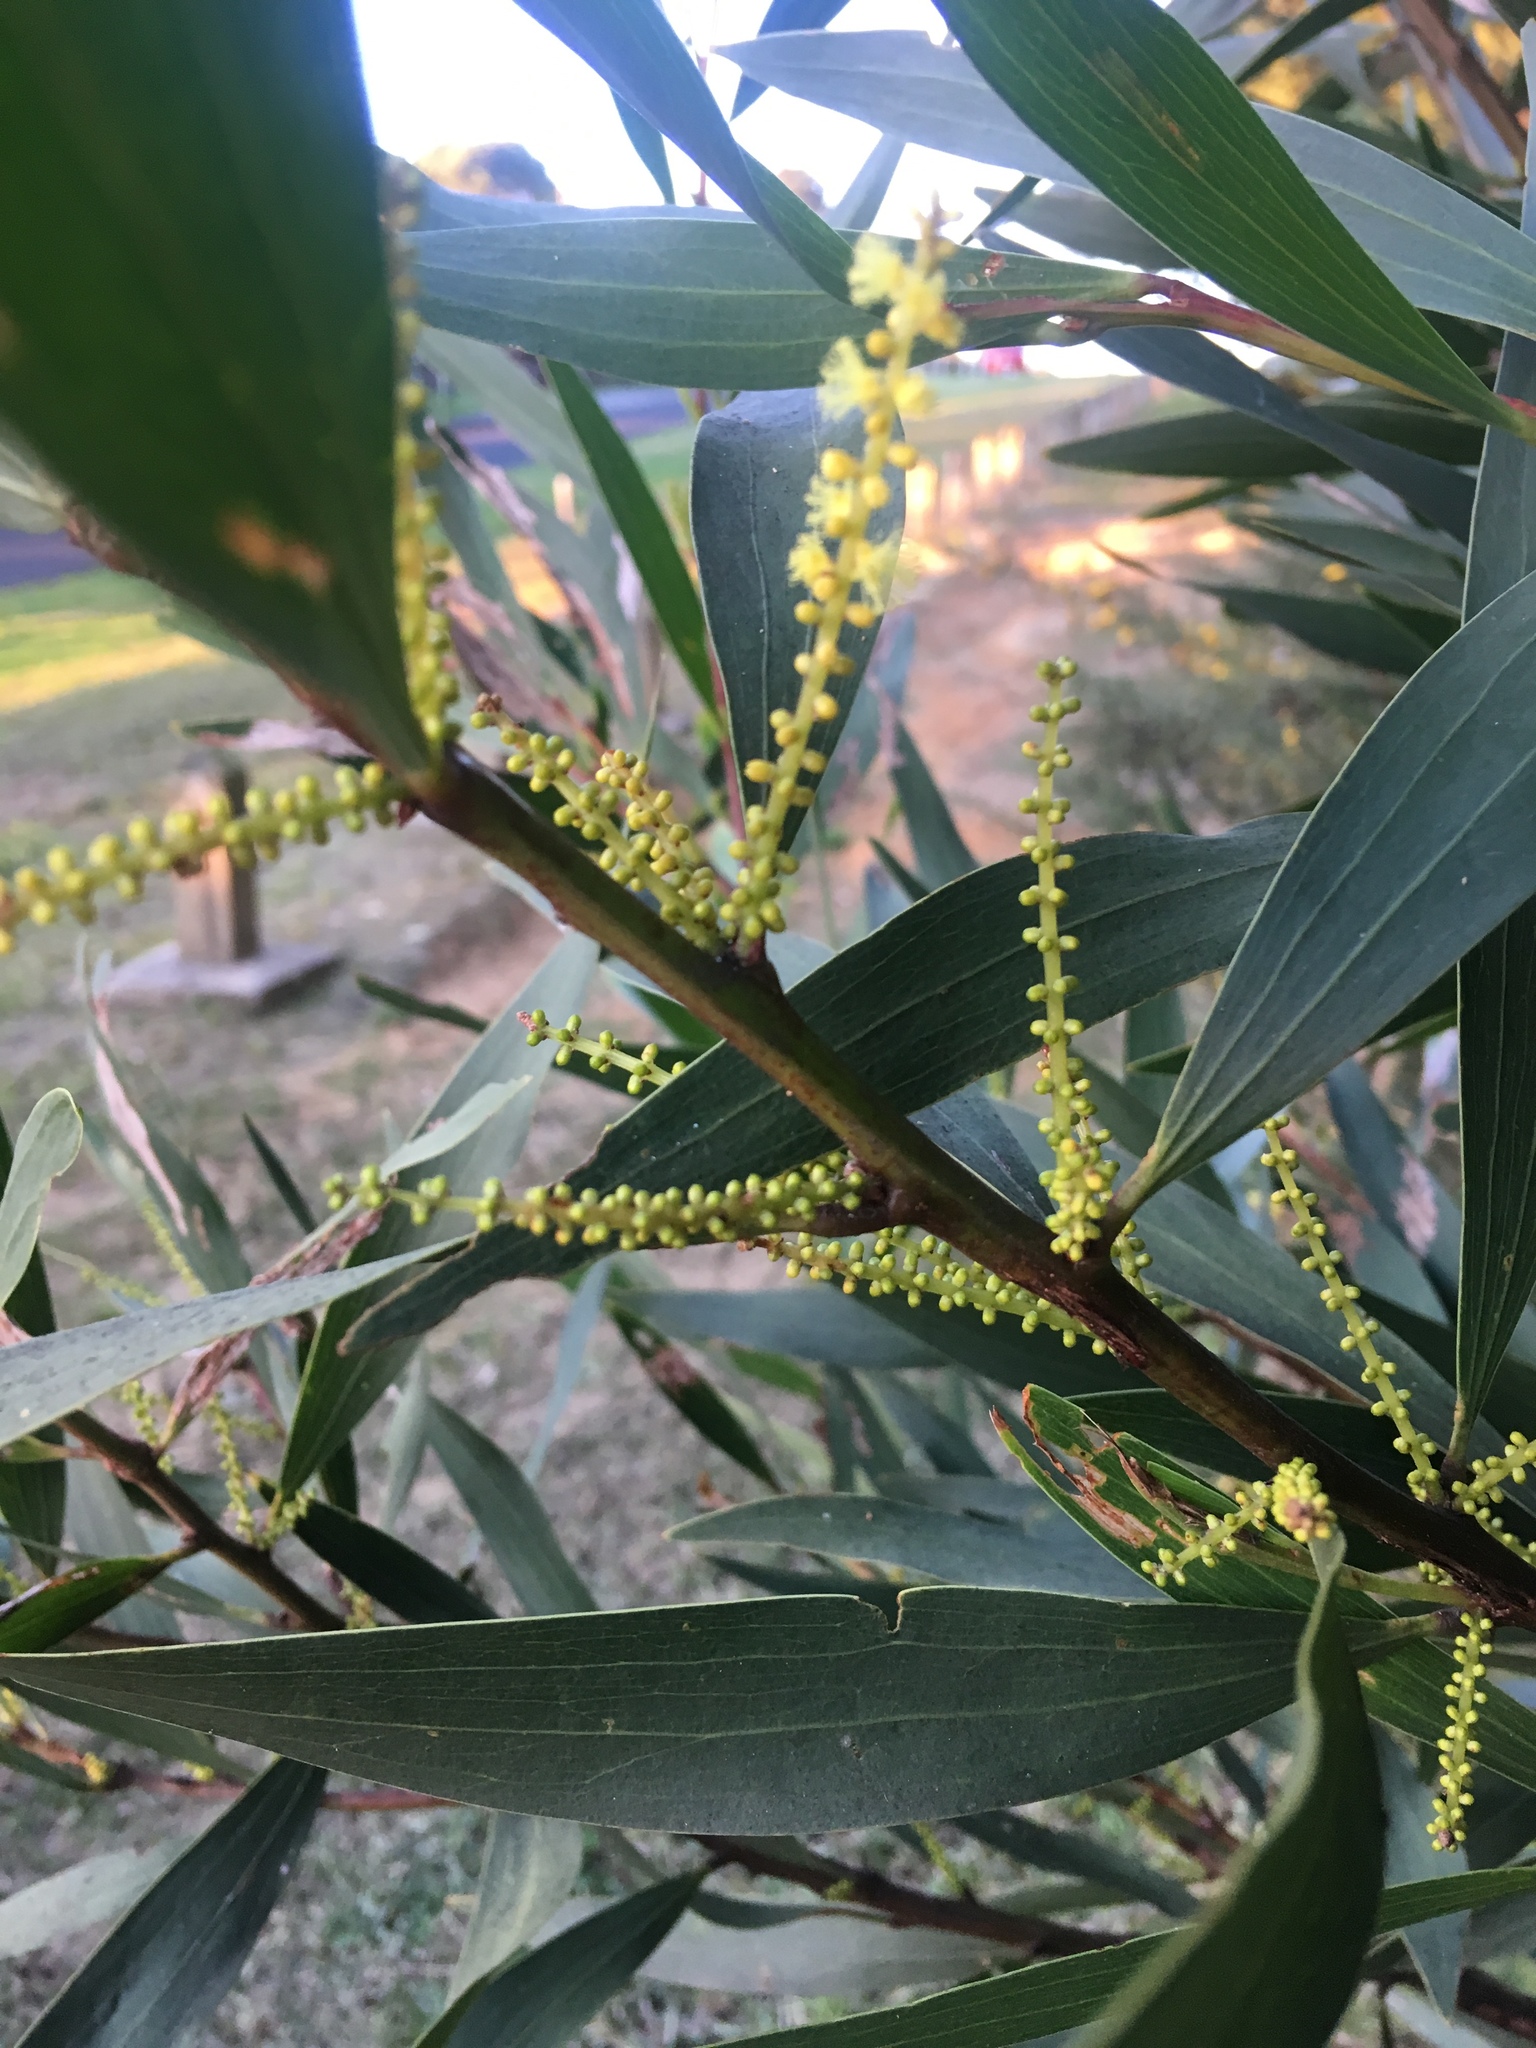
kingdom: Plantae
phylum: Tracheophyta
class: Magnoliopsida
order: Fabales
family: Fabaceae
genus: Acacia
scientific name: Acacia longifolia
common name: Sydney golden wattle
